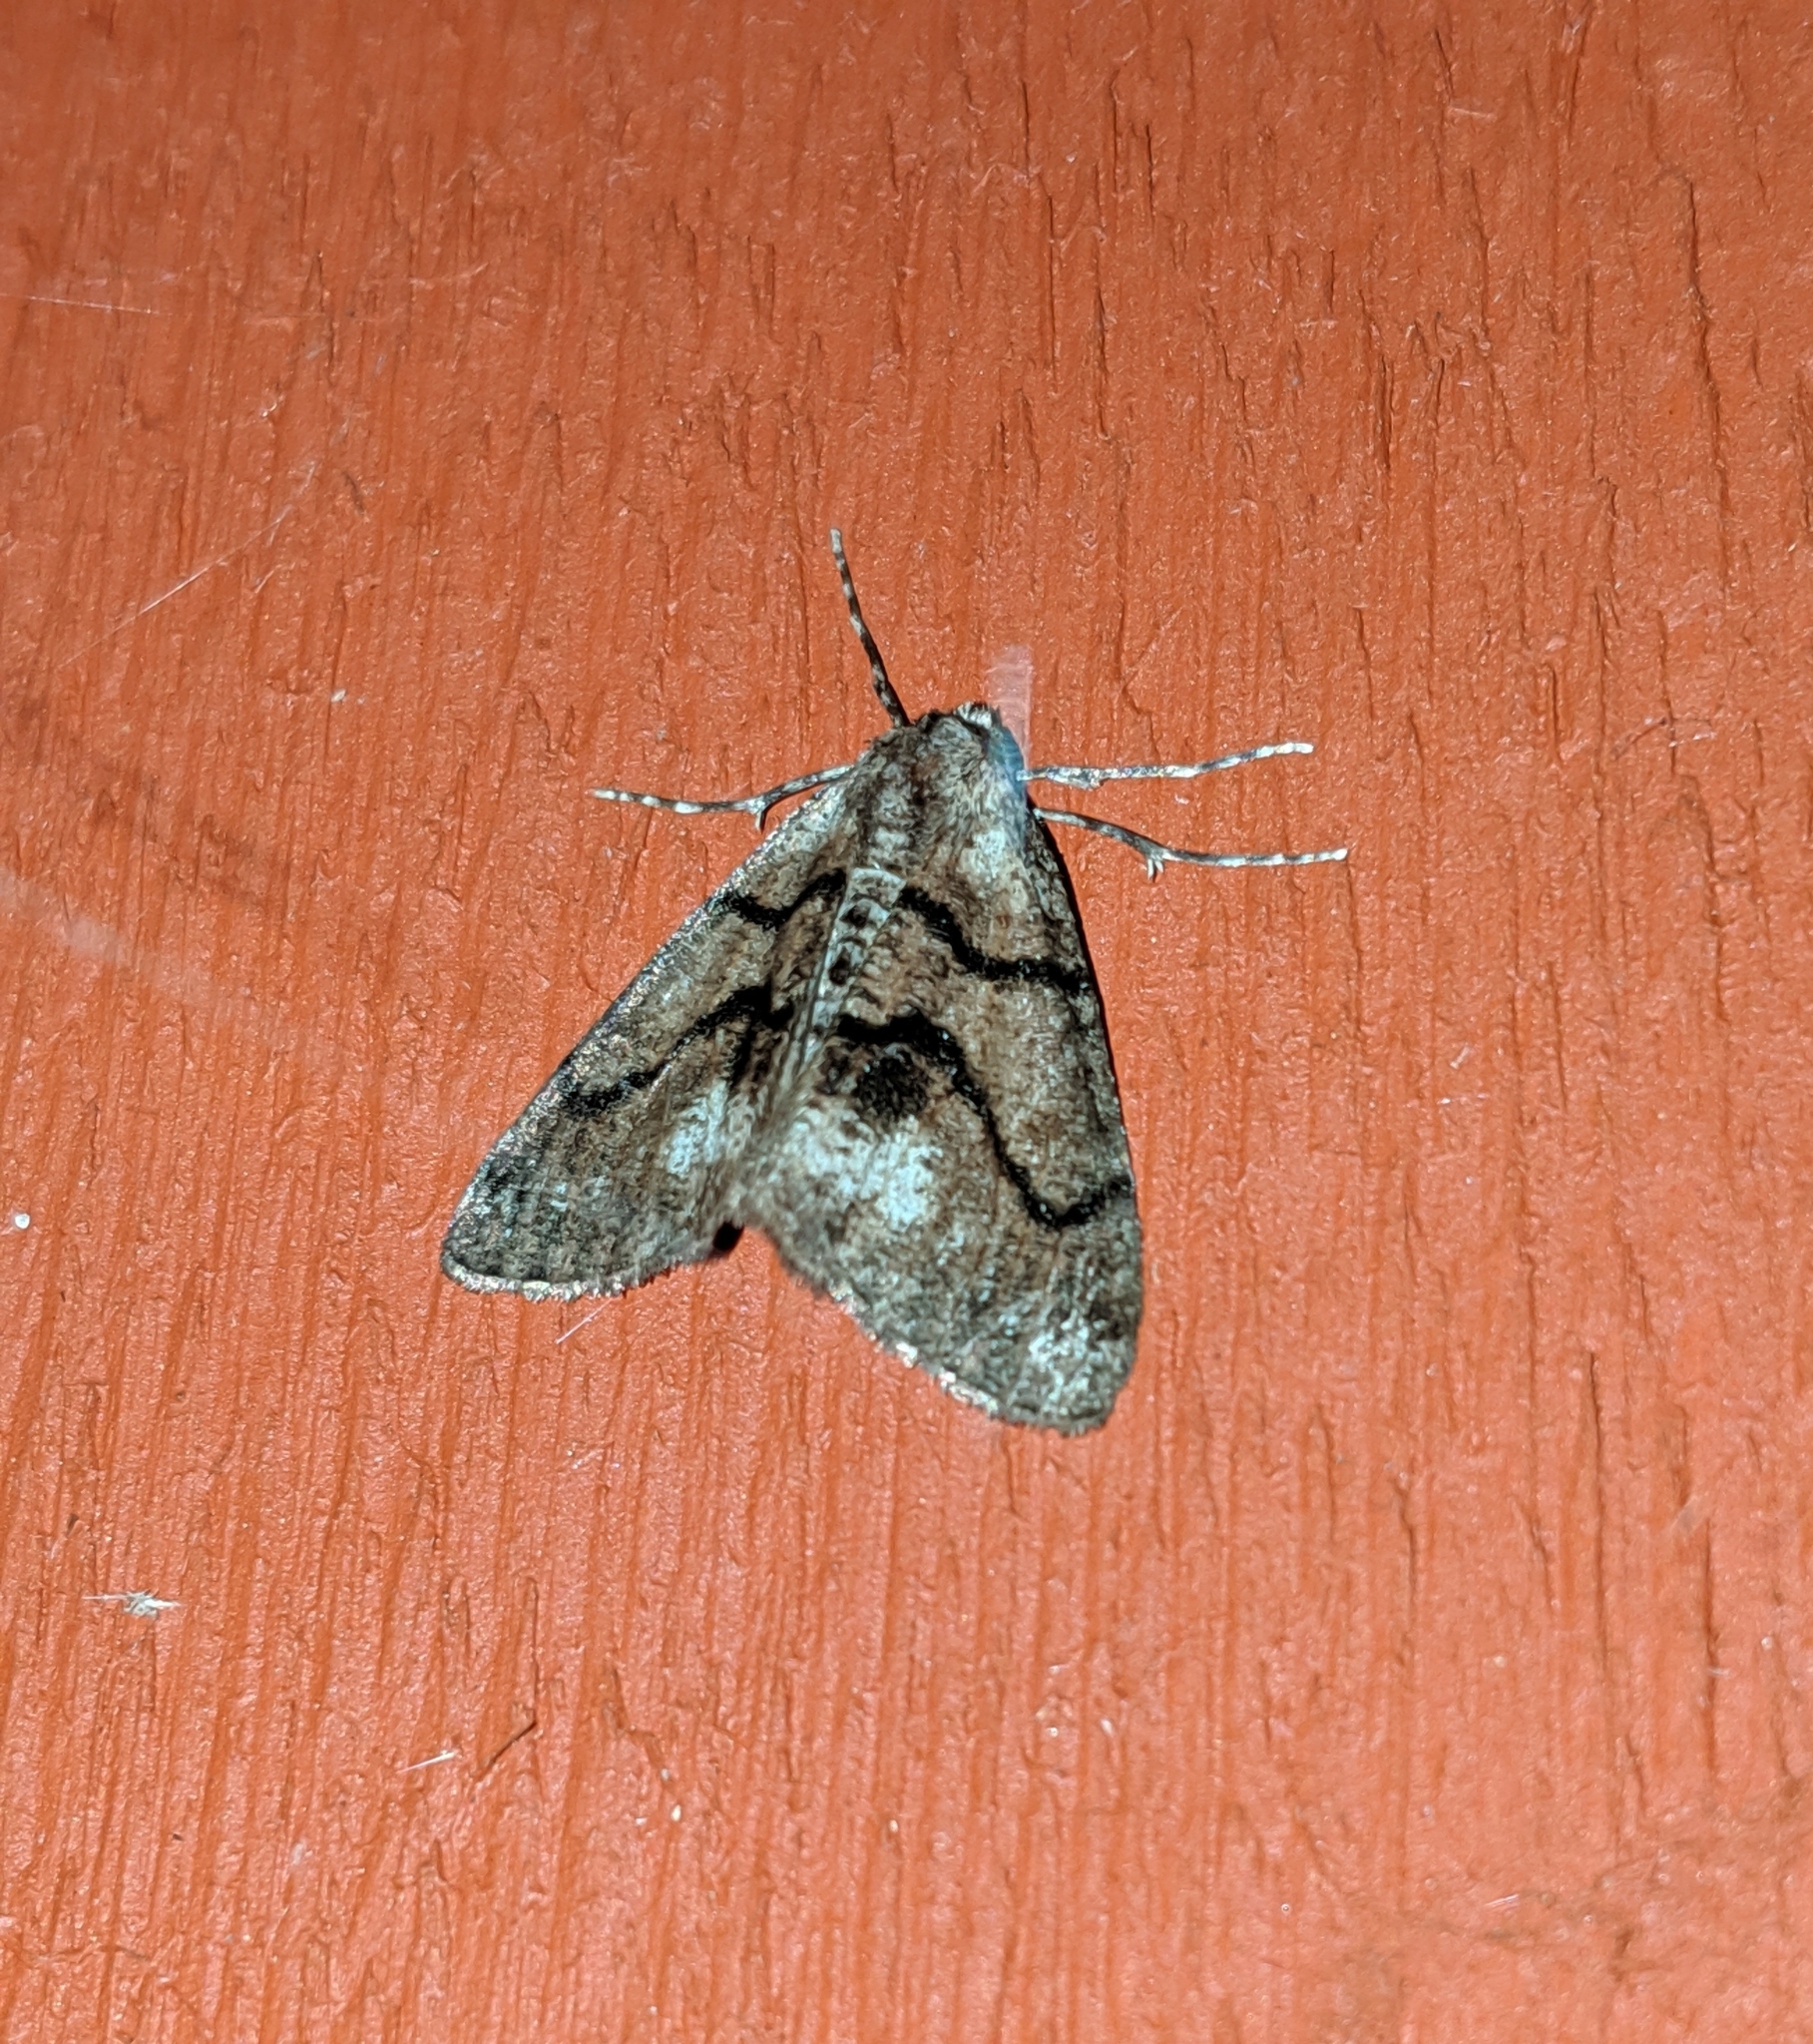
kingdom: Animalia
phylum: Arthropoda
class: Insecta
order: Lepidoptera
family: Geometridae
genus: Gabriola
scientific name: Gabriola dyari
